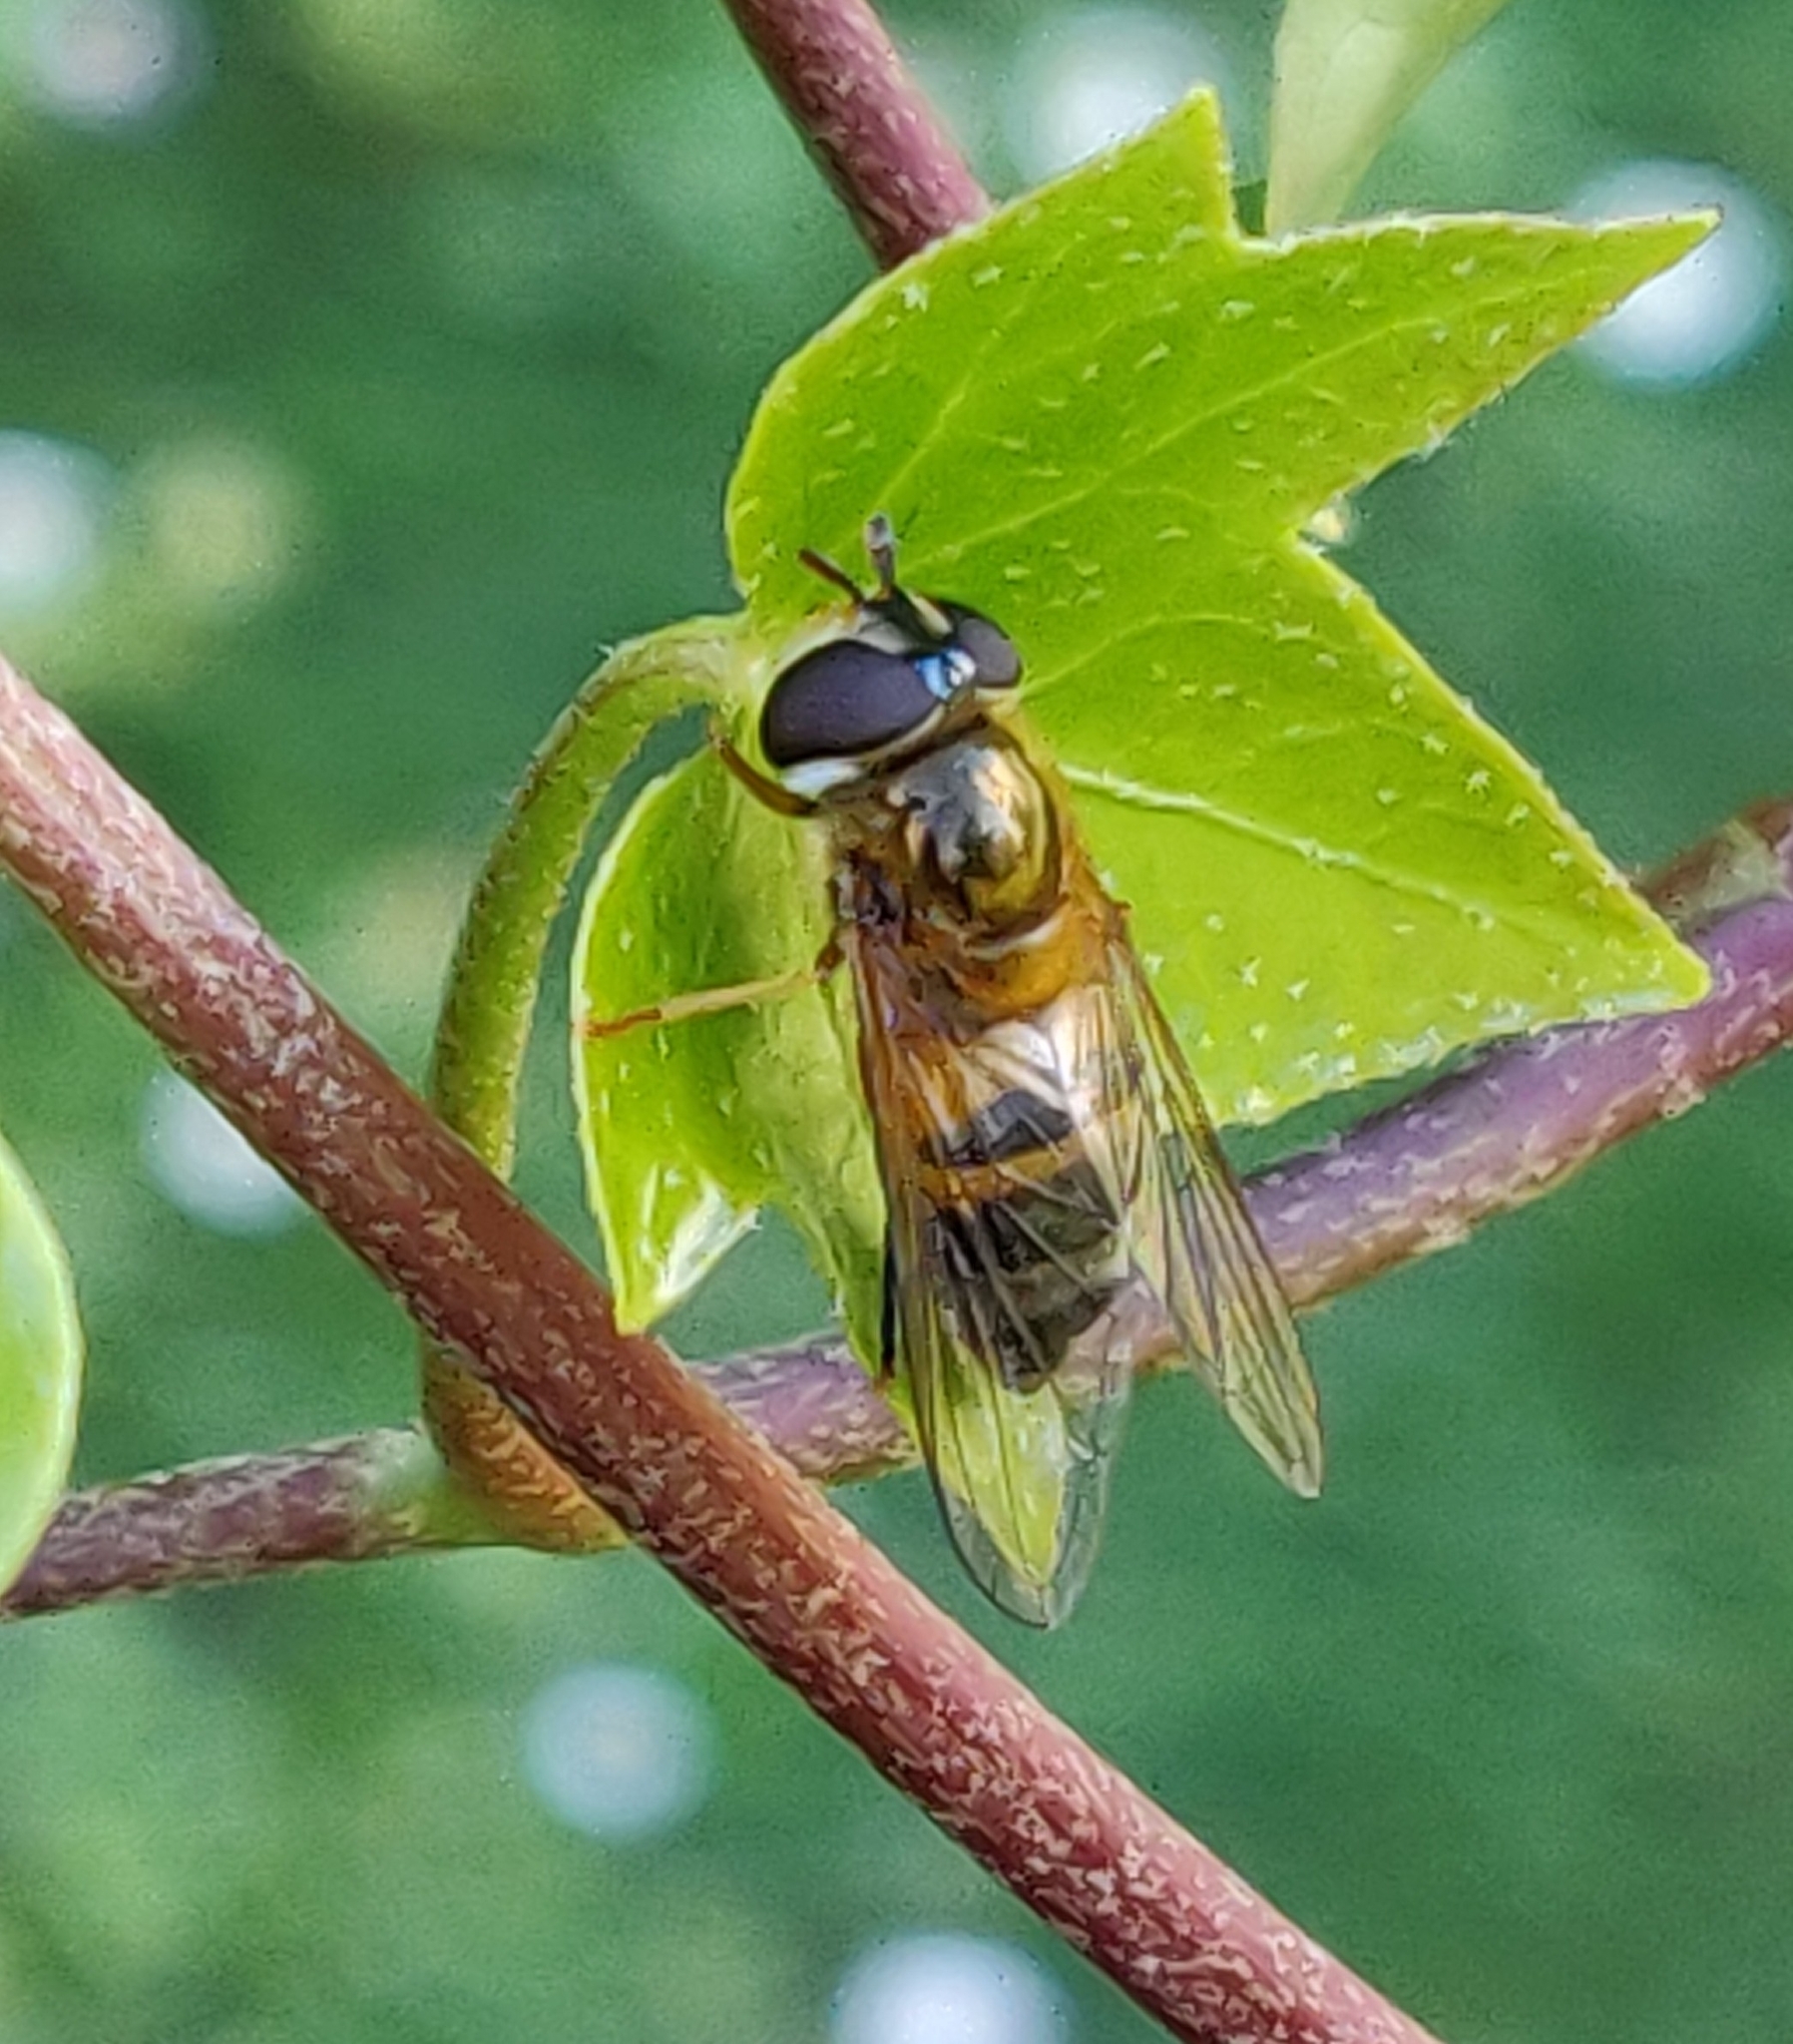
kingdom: Animalia
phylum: Arthropoda
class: Insecta
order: Diptera
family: Syrphidae
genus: Epistrophe
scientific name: Epistrophe eligans
